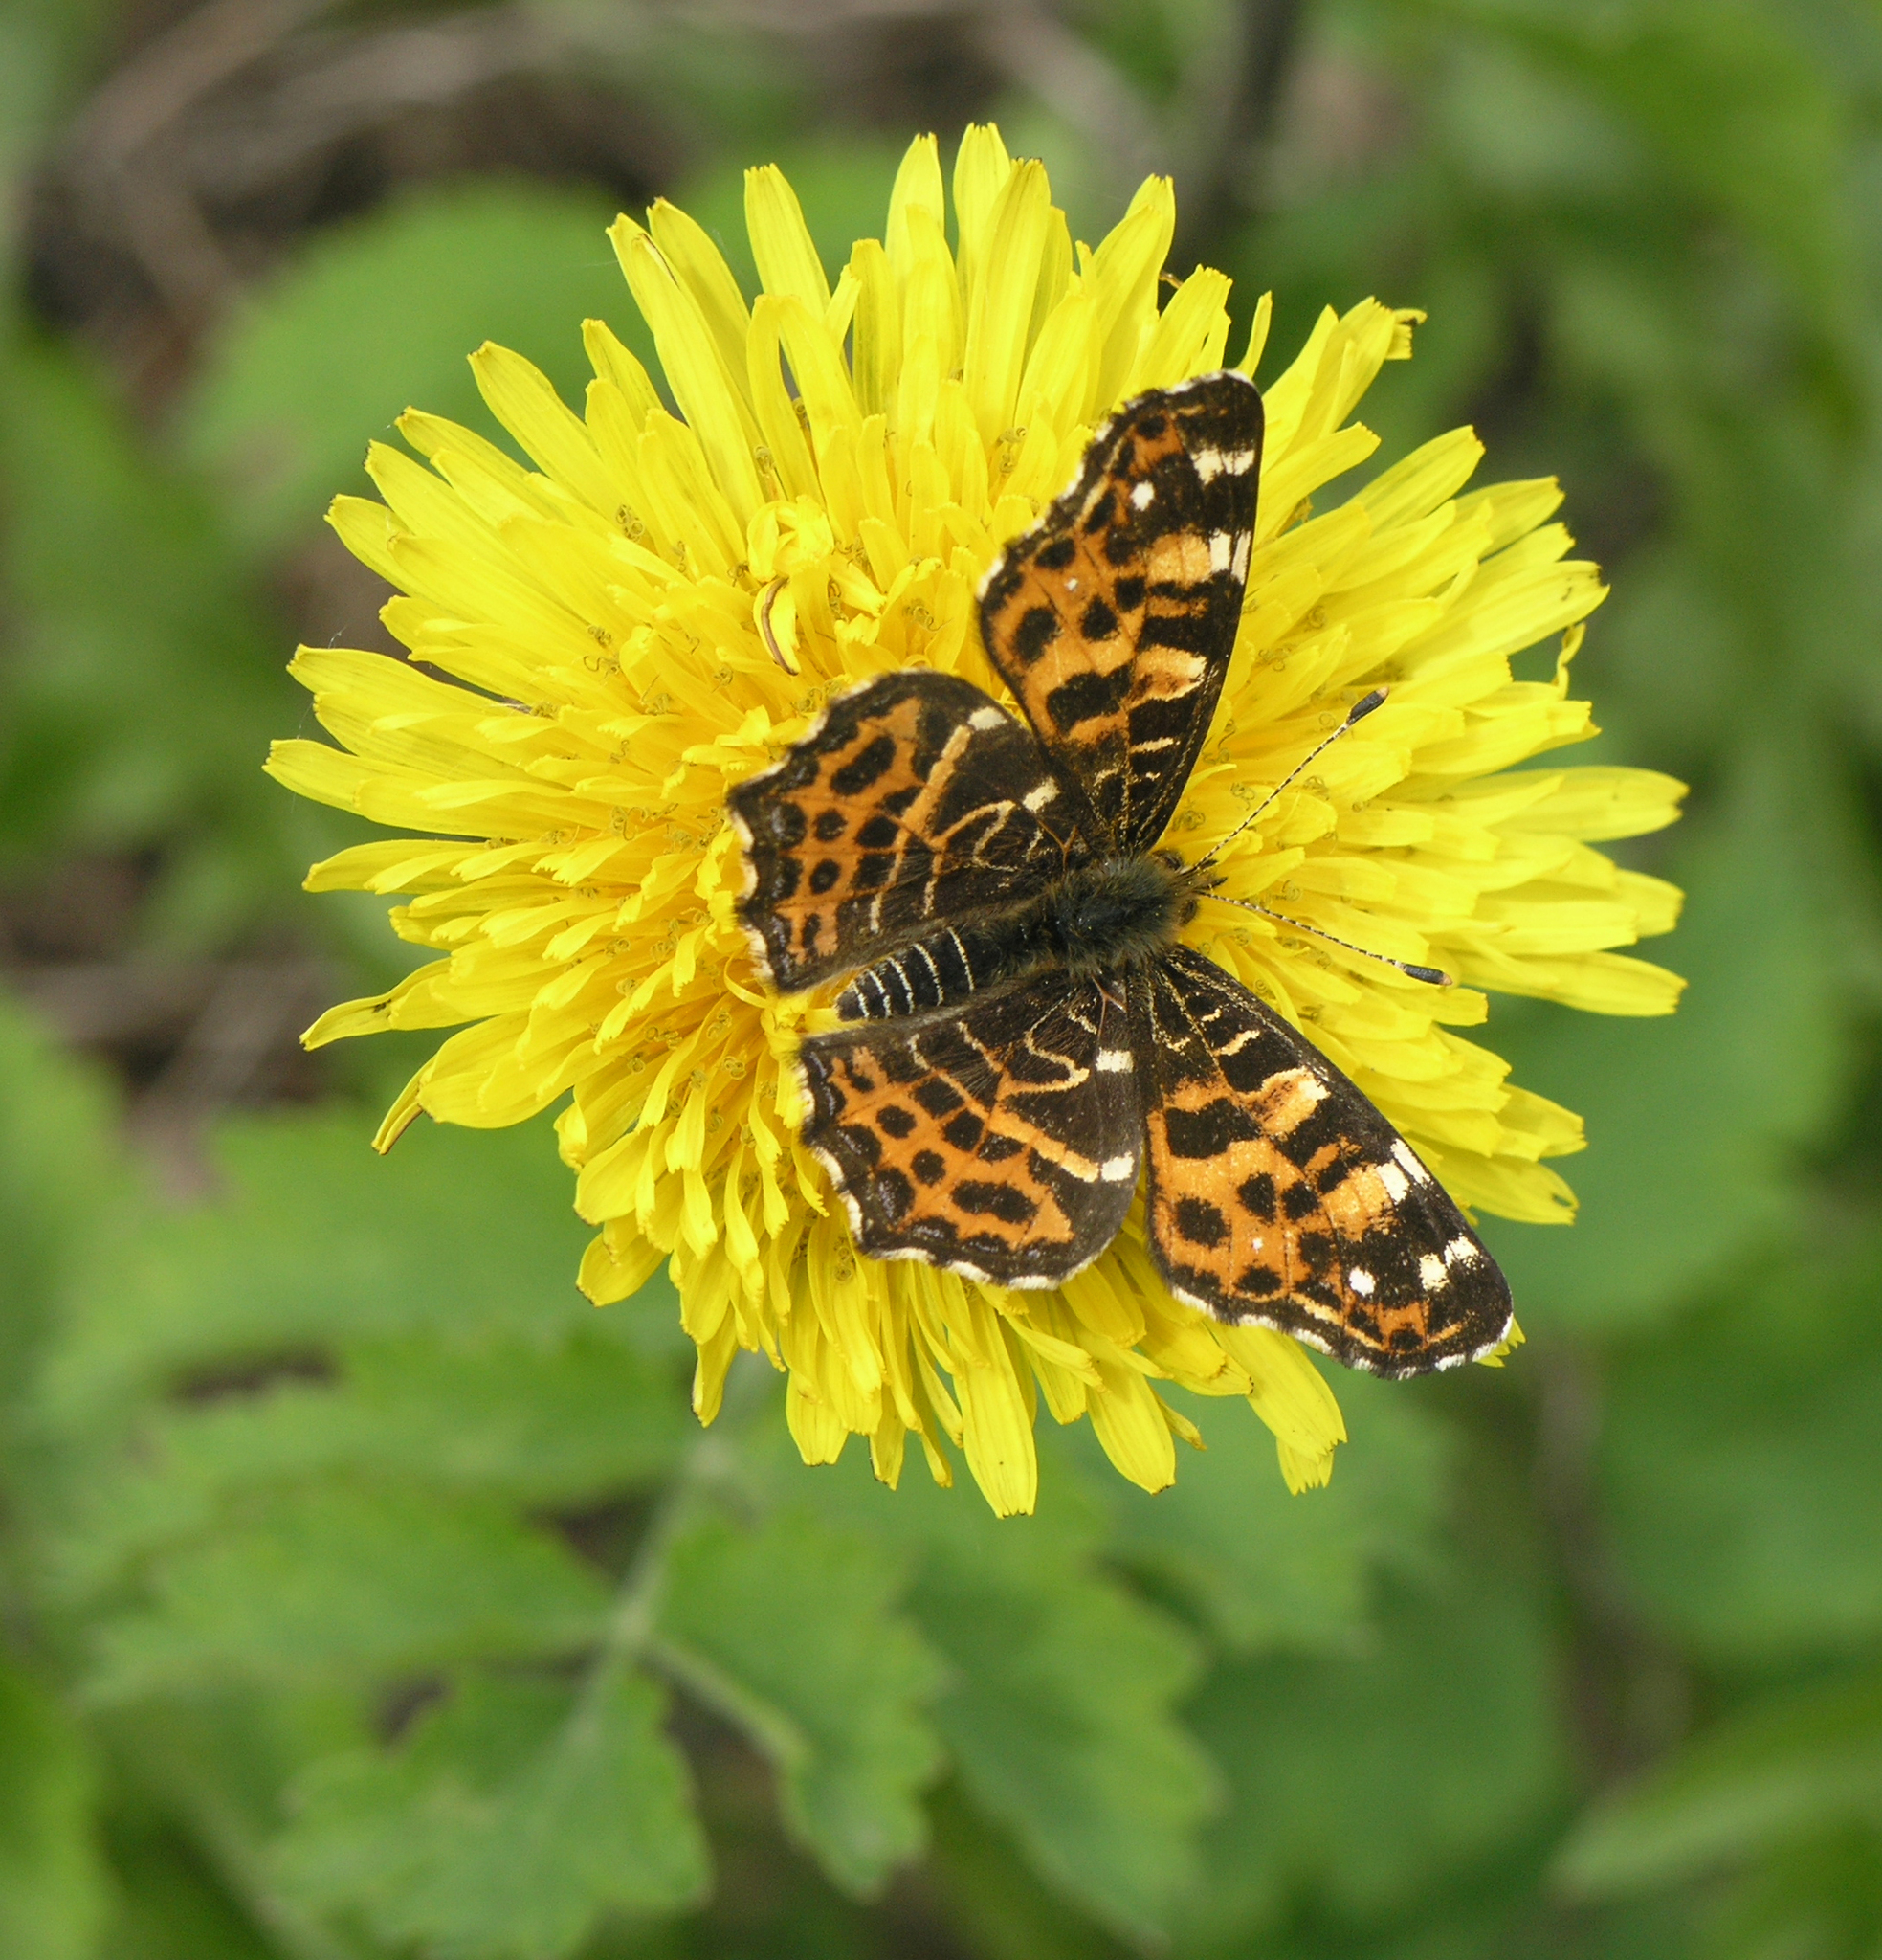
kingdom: Animalia
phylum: Arthropoda
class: Insecta
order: Lepidoptera
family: Nymphalidae
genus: Araschnia
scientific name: Araschnia levana
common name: Map butterfly
